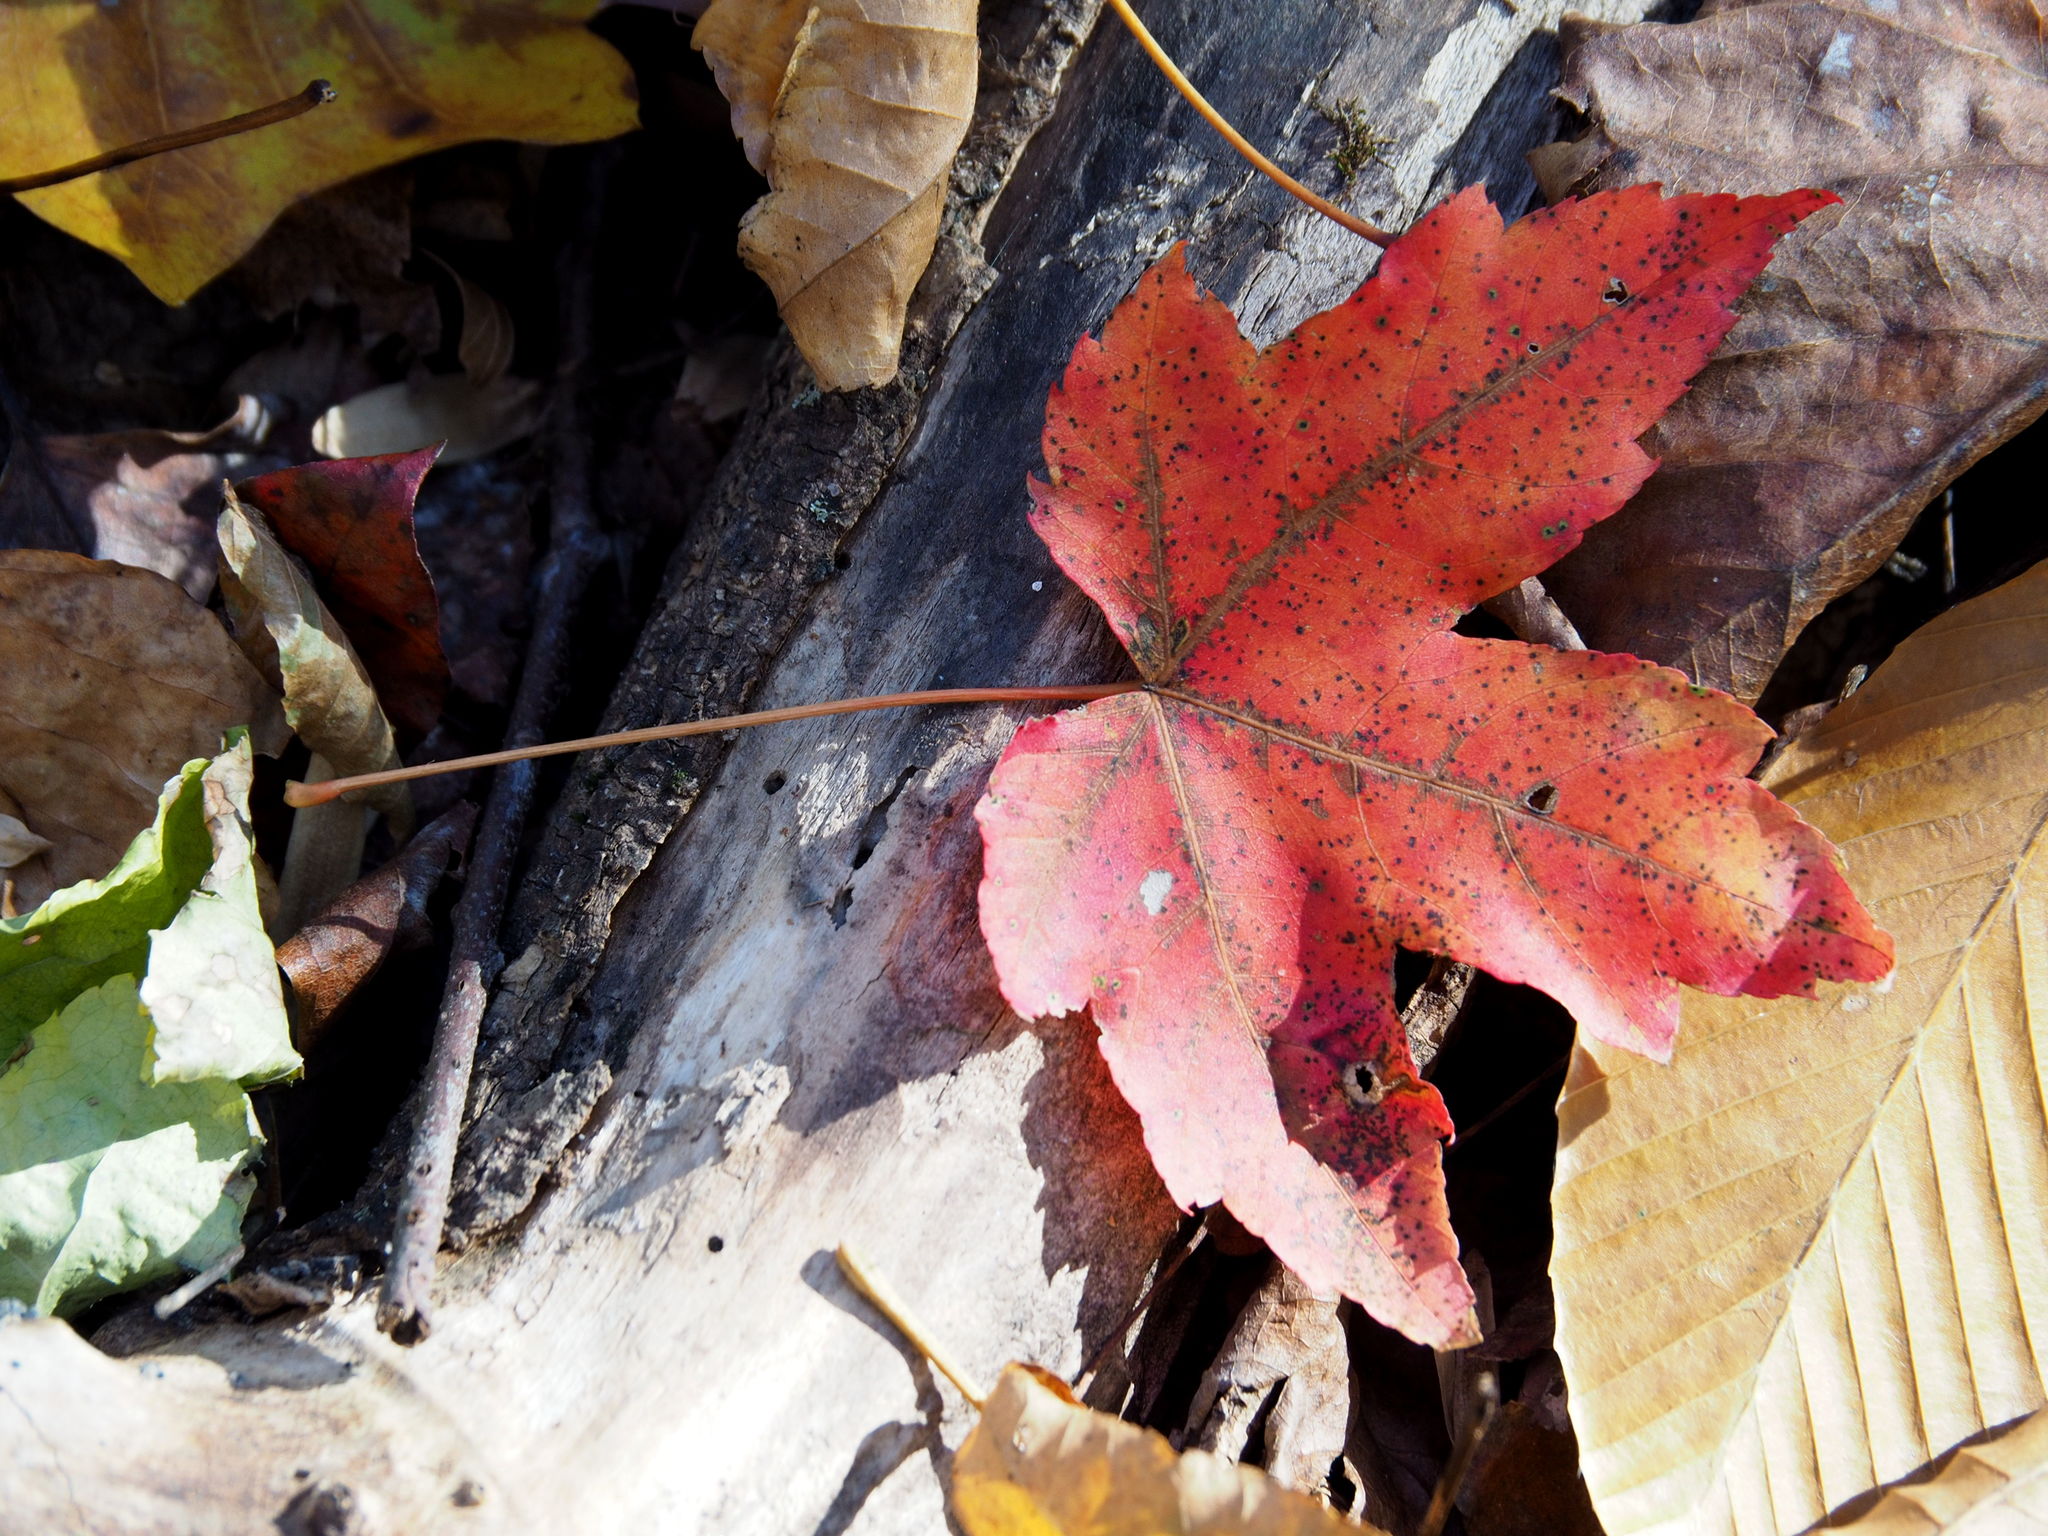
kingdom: Plantae
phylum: Tracheophyta
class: Magnoliopsida
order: Sapindales
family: Sapindaceae
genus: Acer
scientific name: Acer rubrum
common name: Red maple
